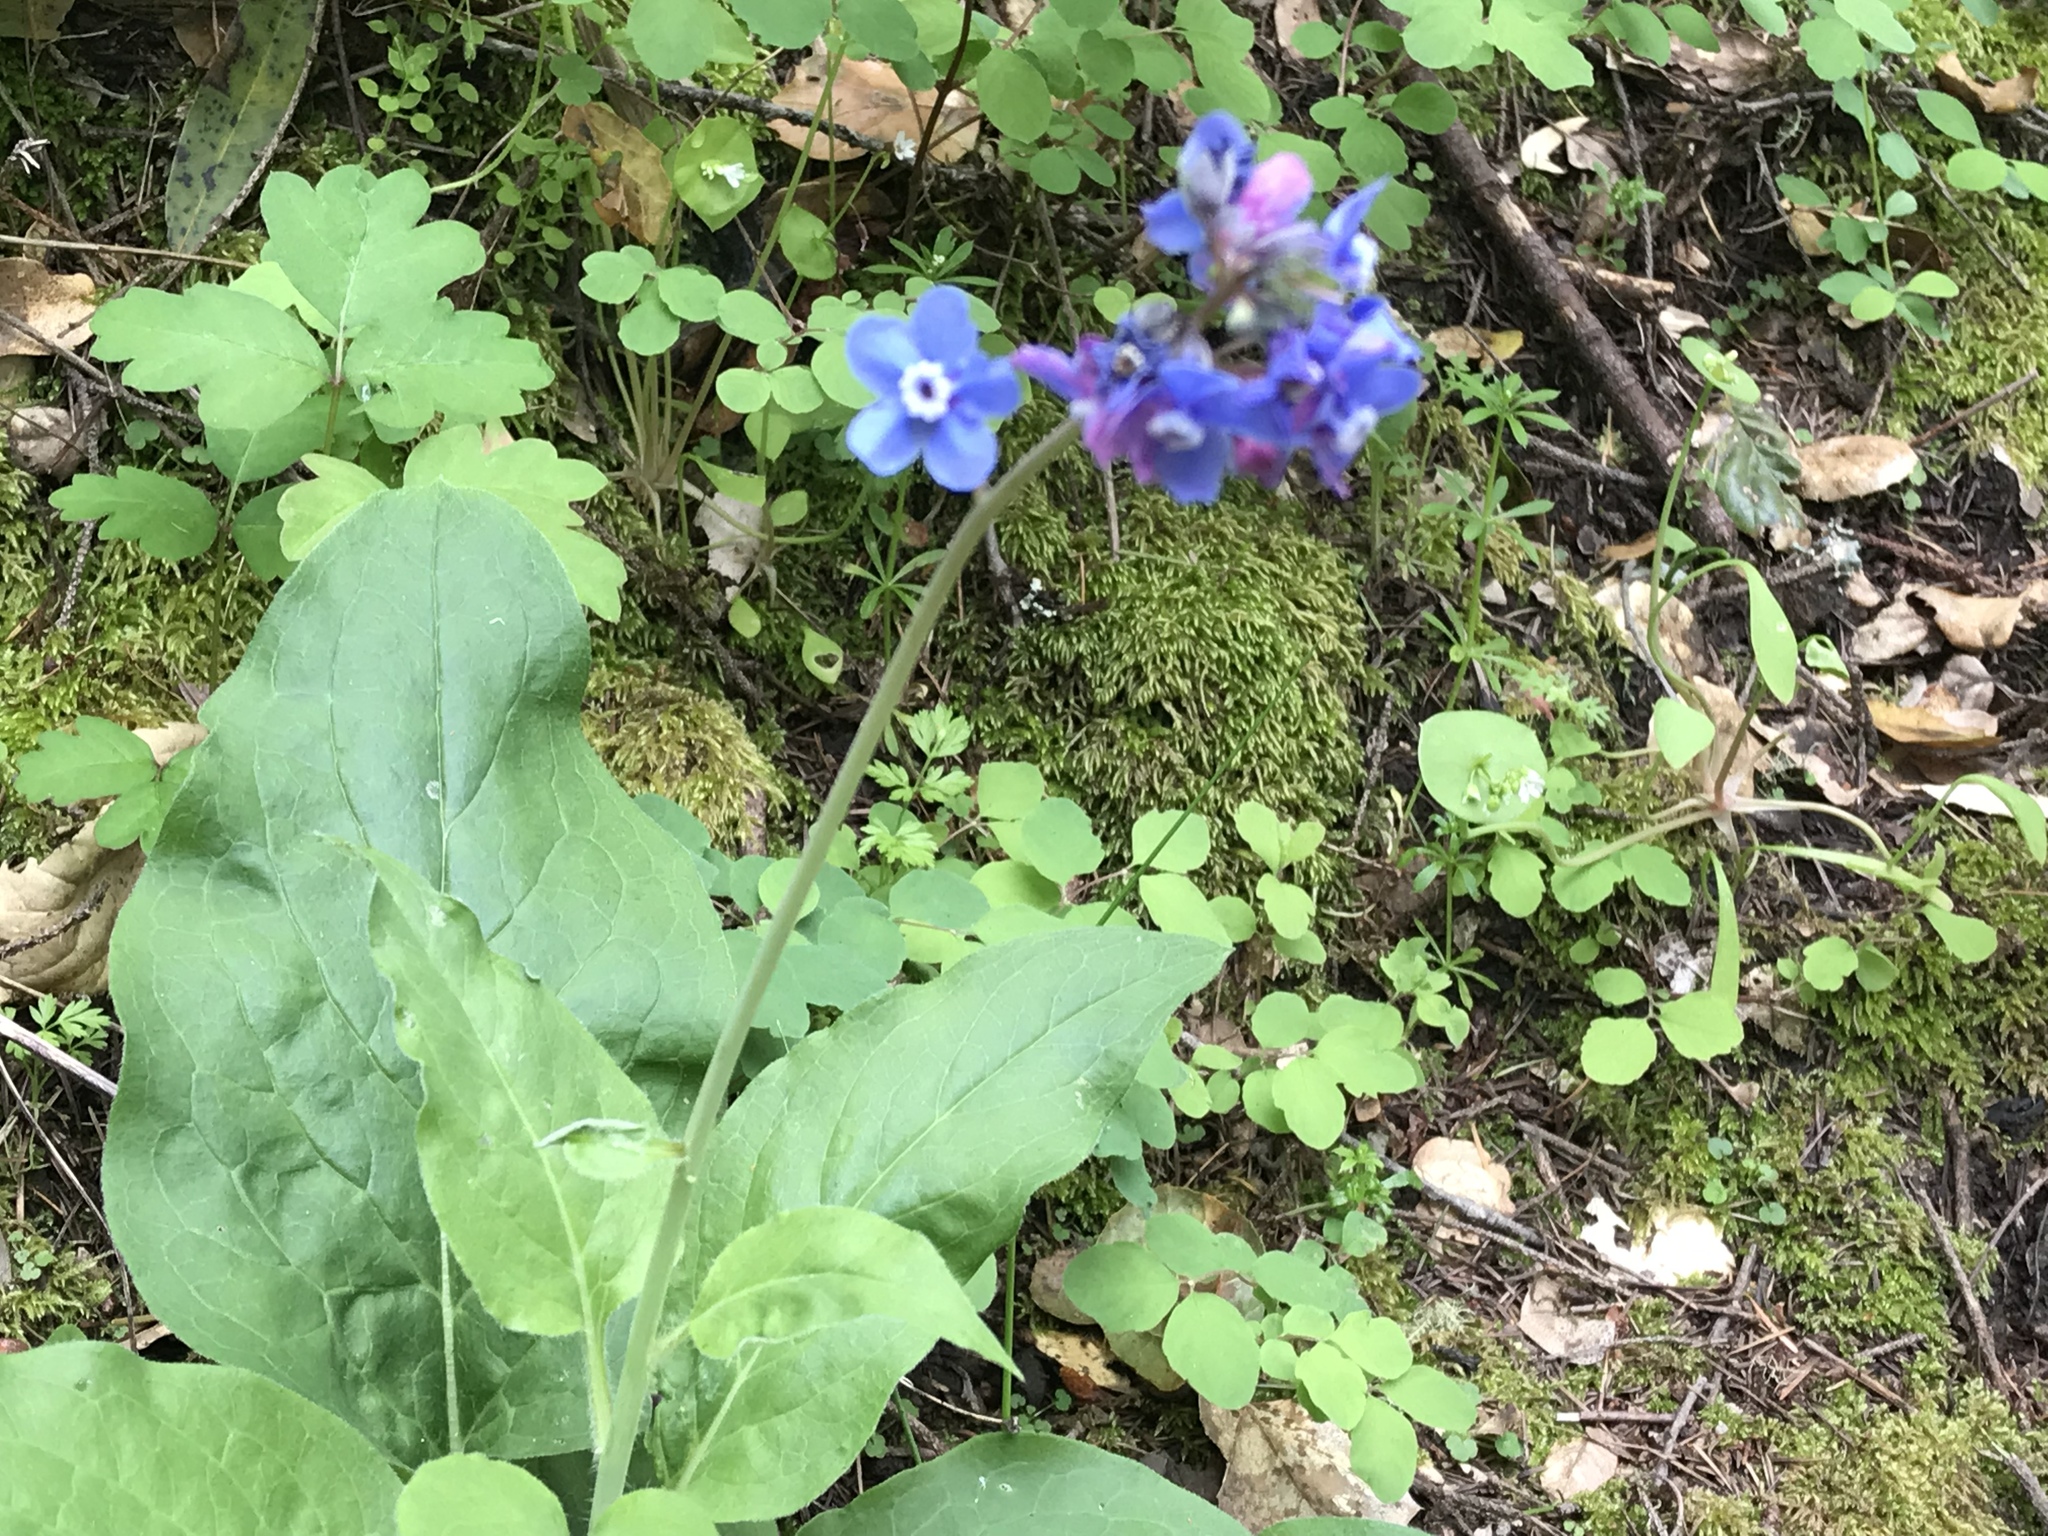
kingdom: Plantae
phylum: Tracheophyta
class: Magnoliopsida
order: Boraginales
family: Boraginaceae
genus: Adelinia
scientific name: Adelinia grande
